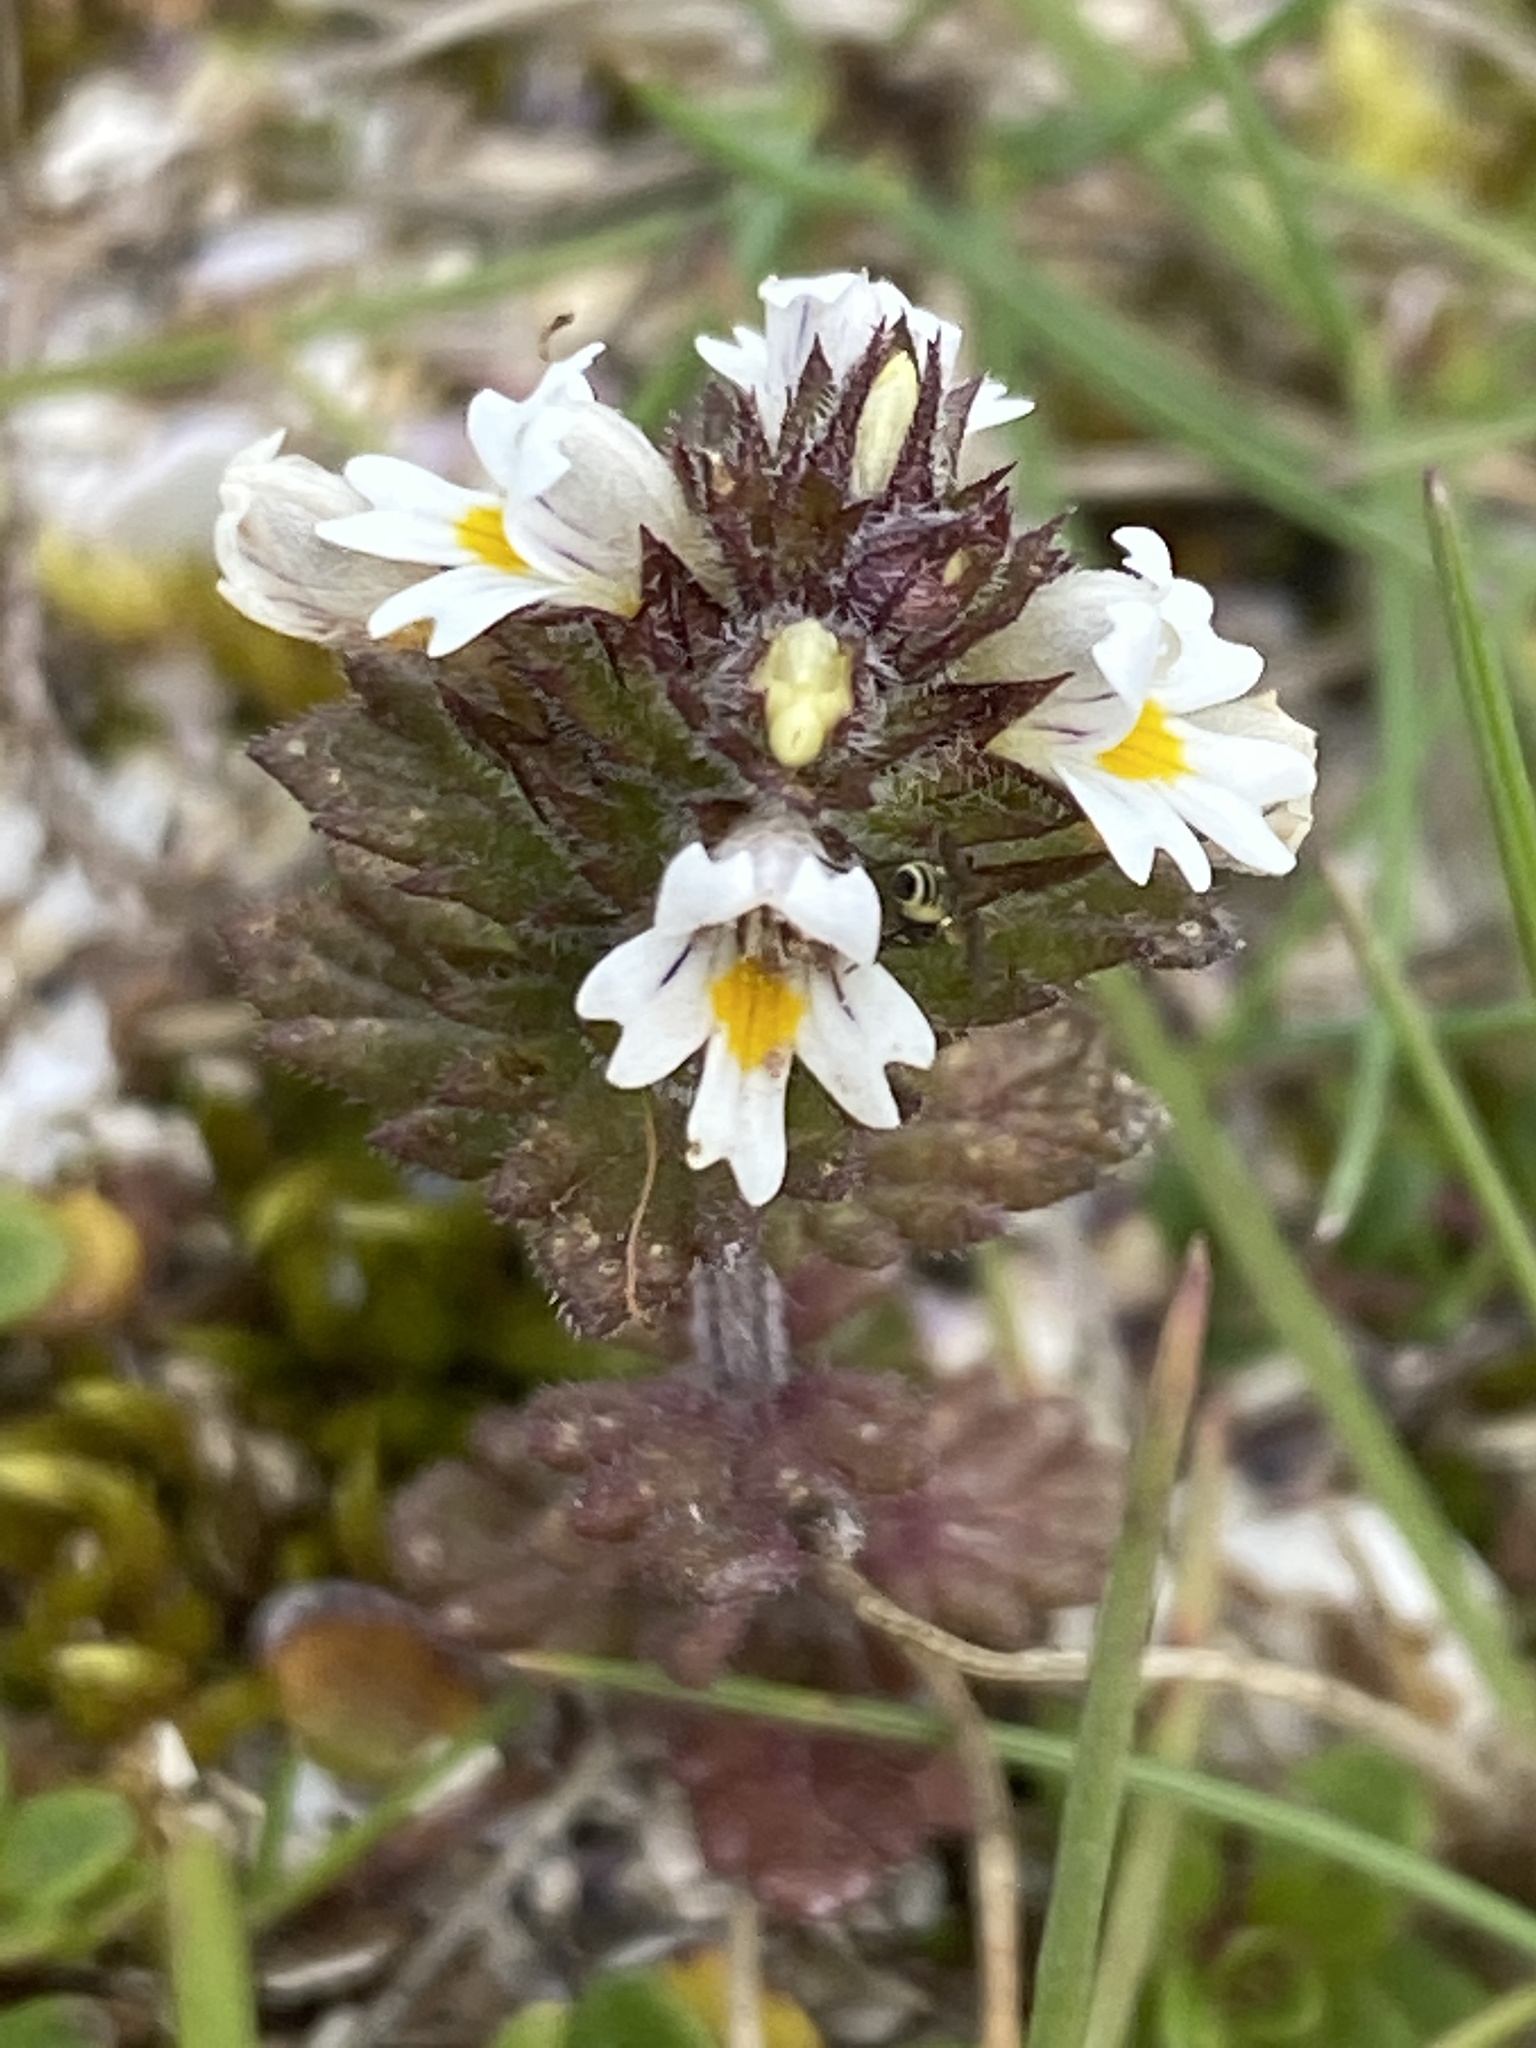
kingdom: Plantae
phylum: Tracheophyta
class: Magnoliopsida
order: Lamiales
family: Orobanchaceae
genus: Euphrasia
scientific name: Euphrasia frigida
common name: An eyebright
